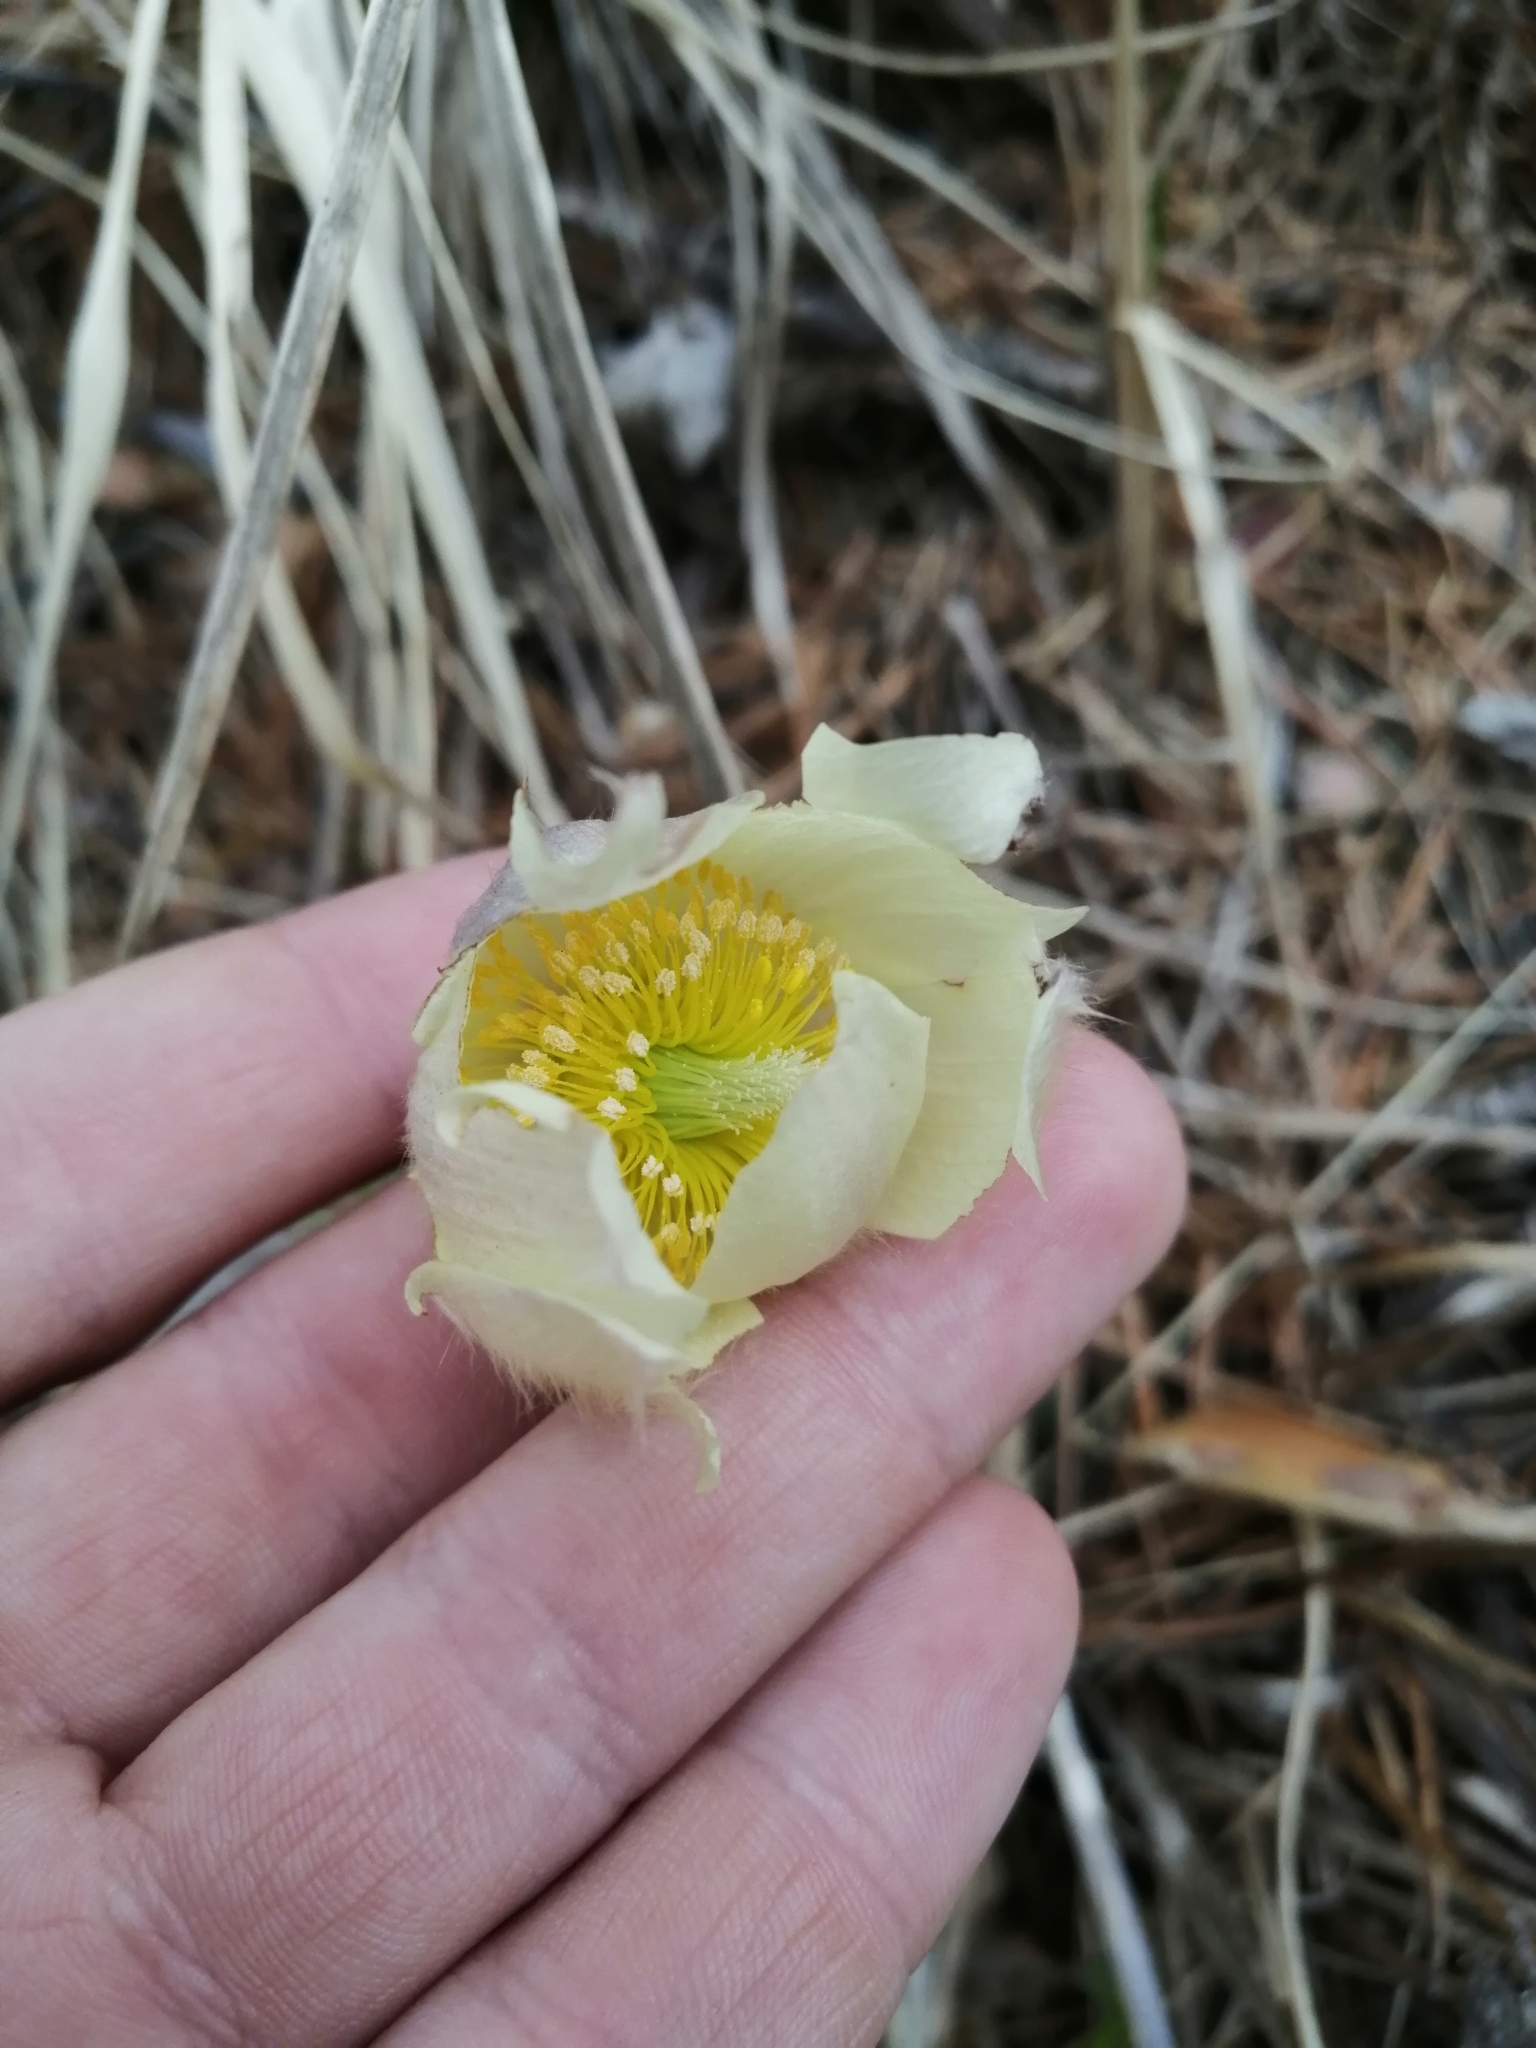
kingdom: Plantae
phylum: Tracheophyta
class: Magnoliopsida
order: Ranunculales
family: Ranunculaceae
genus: Pulsatilla
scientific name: Pulsatilla patens
